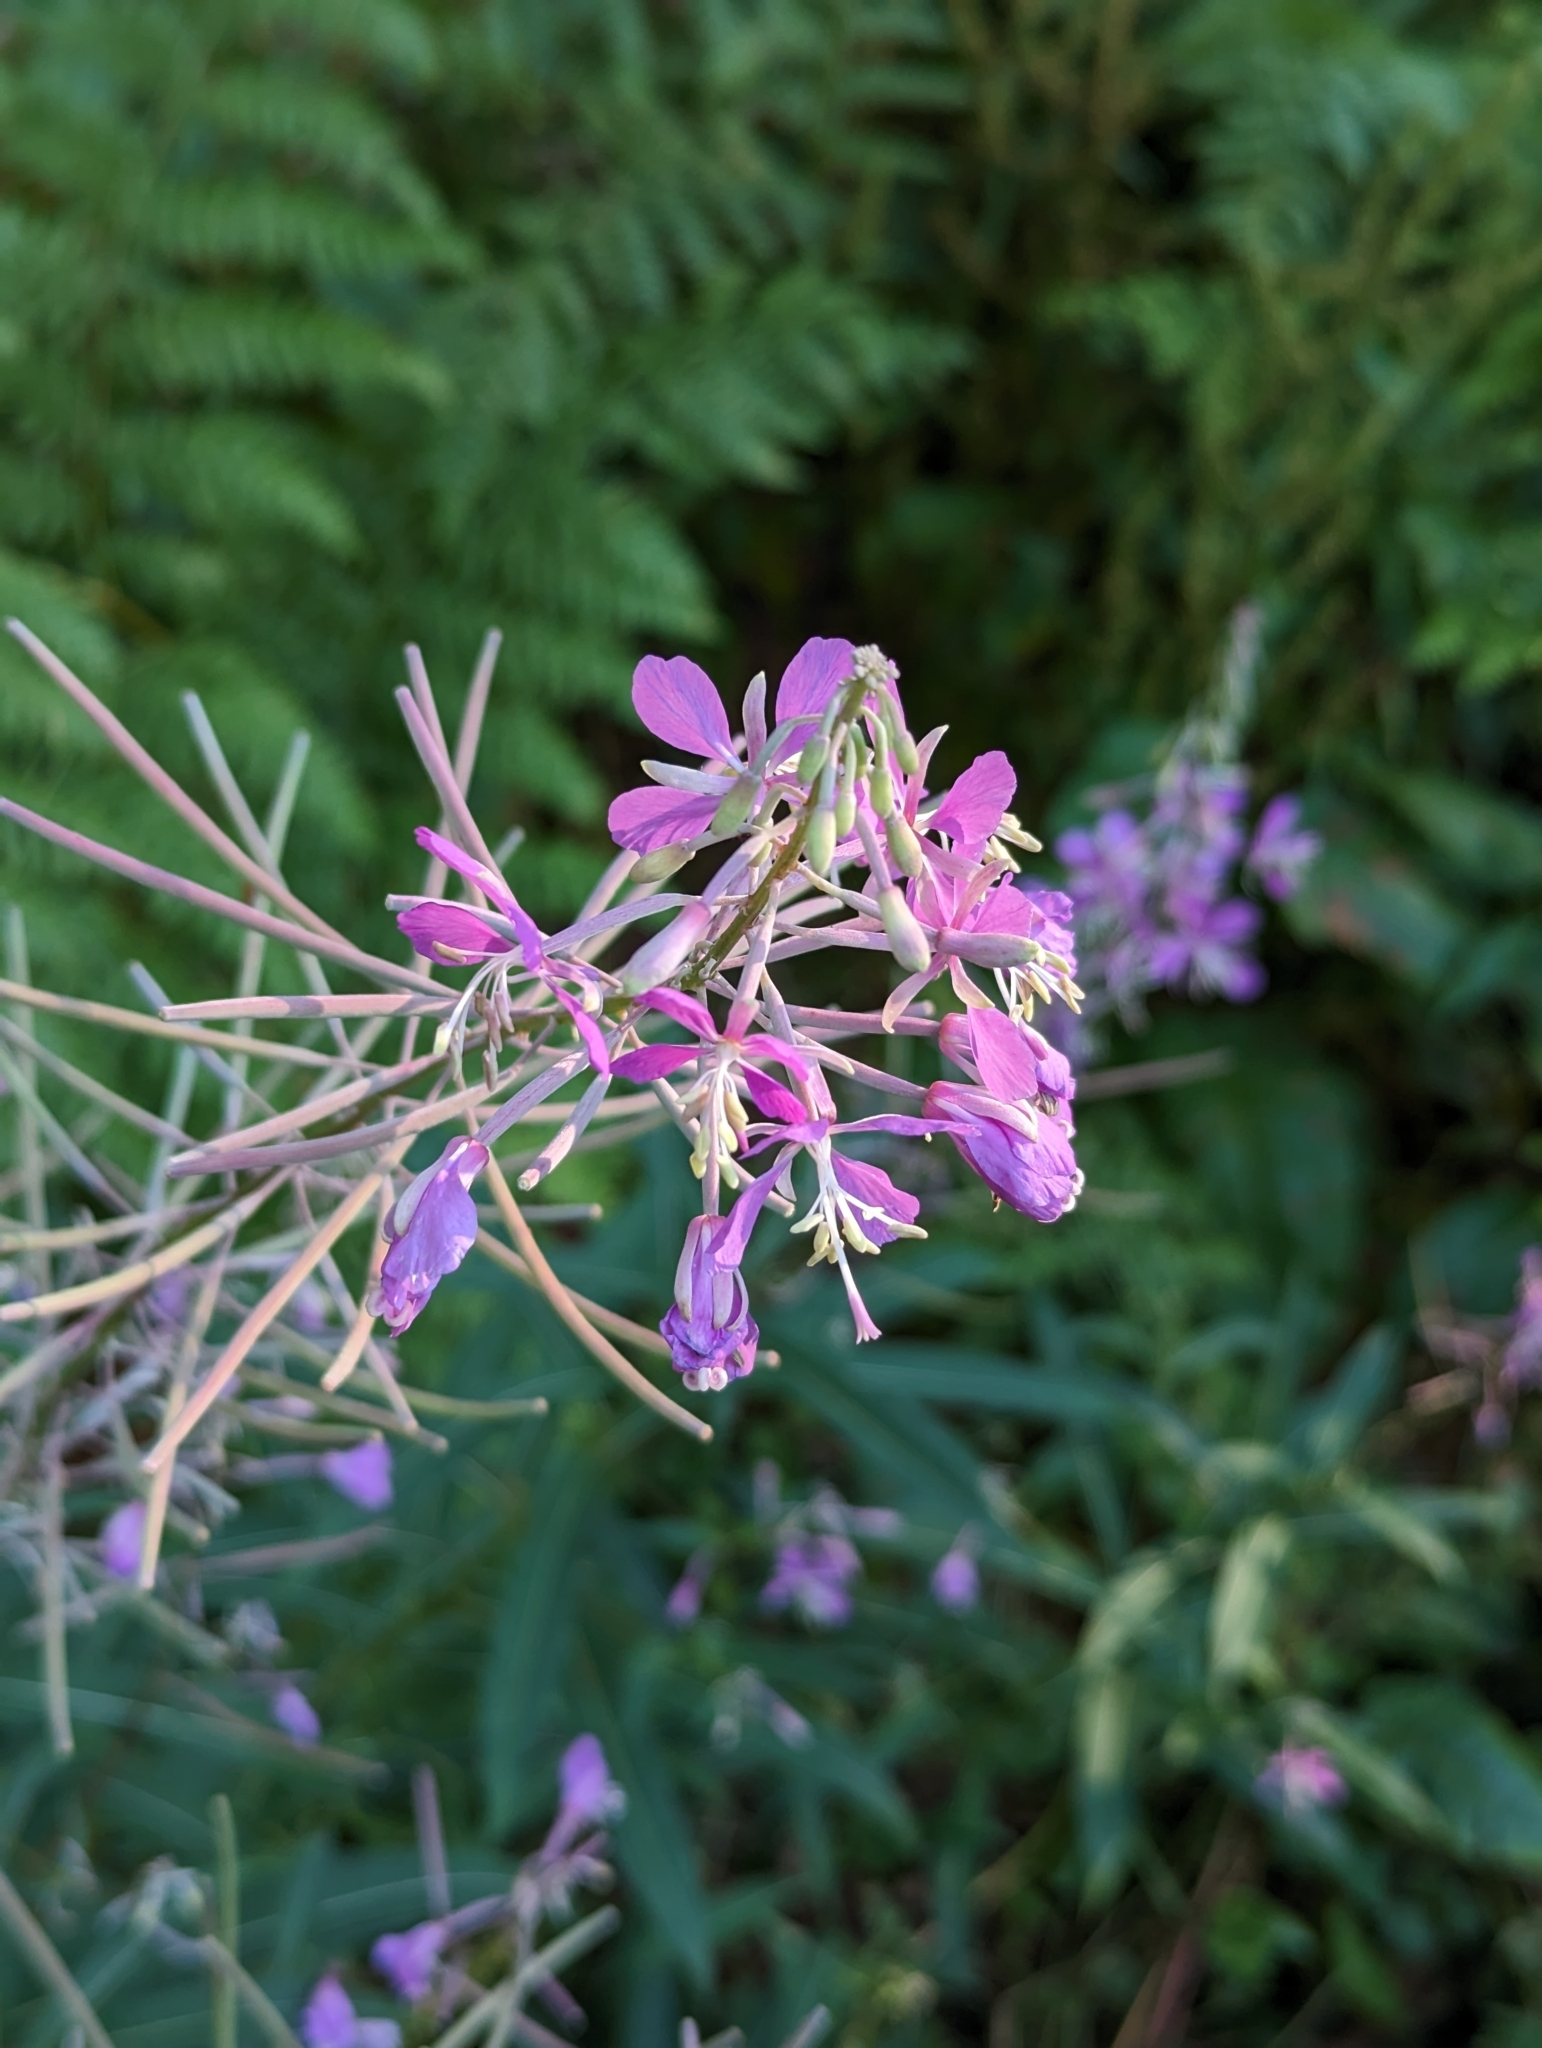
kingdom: Plantae
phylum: Tracheophyta
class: Magnoliopsida
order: Myrtales
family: Onagraceae
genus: Chamaenerion
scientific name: Chamaenerion angustifolium
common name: Fireweed
